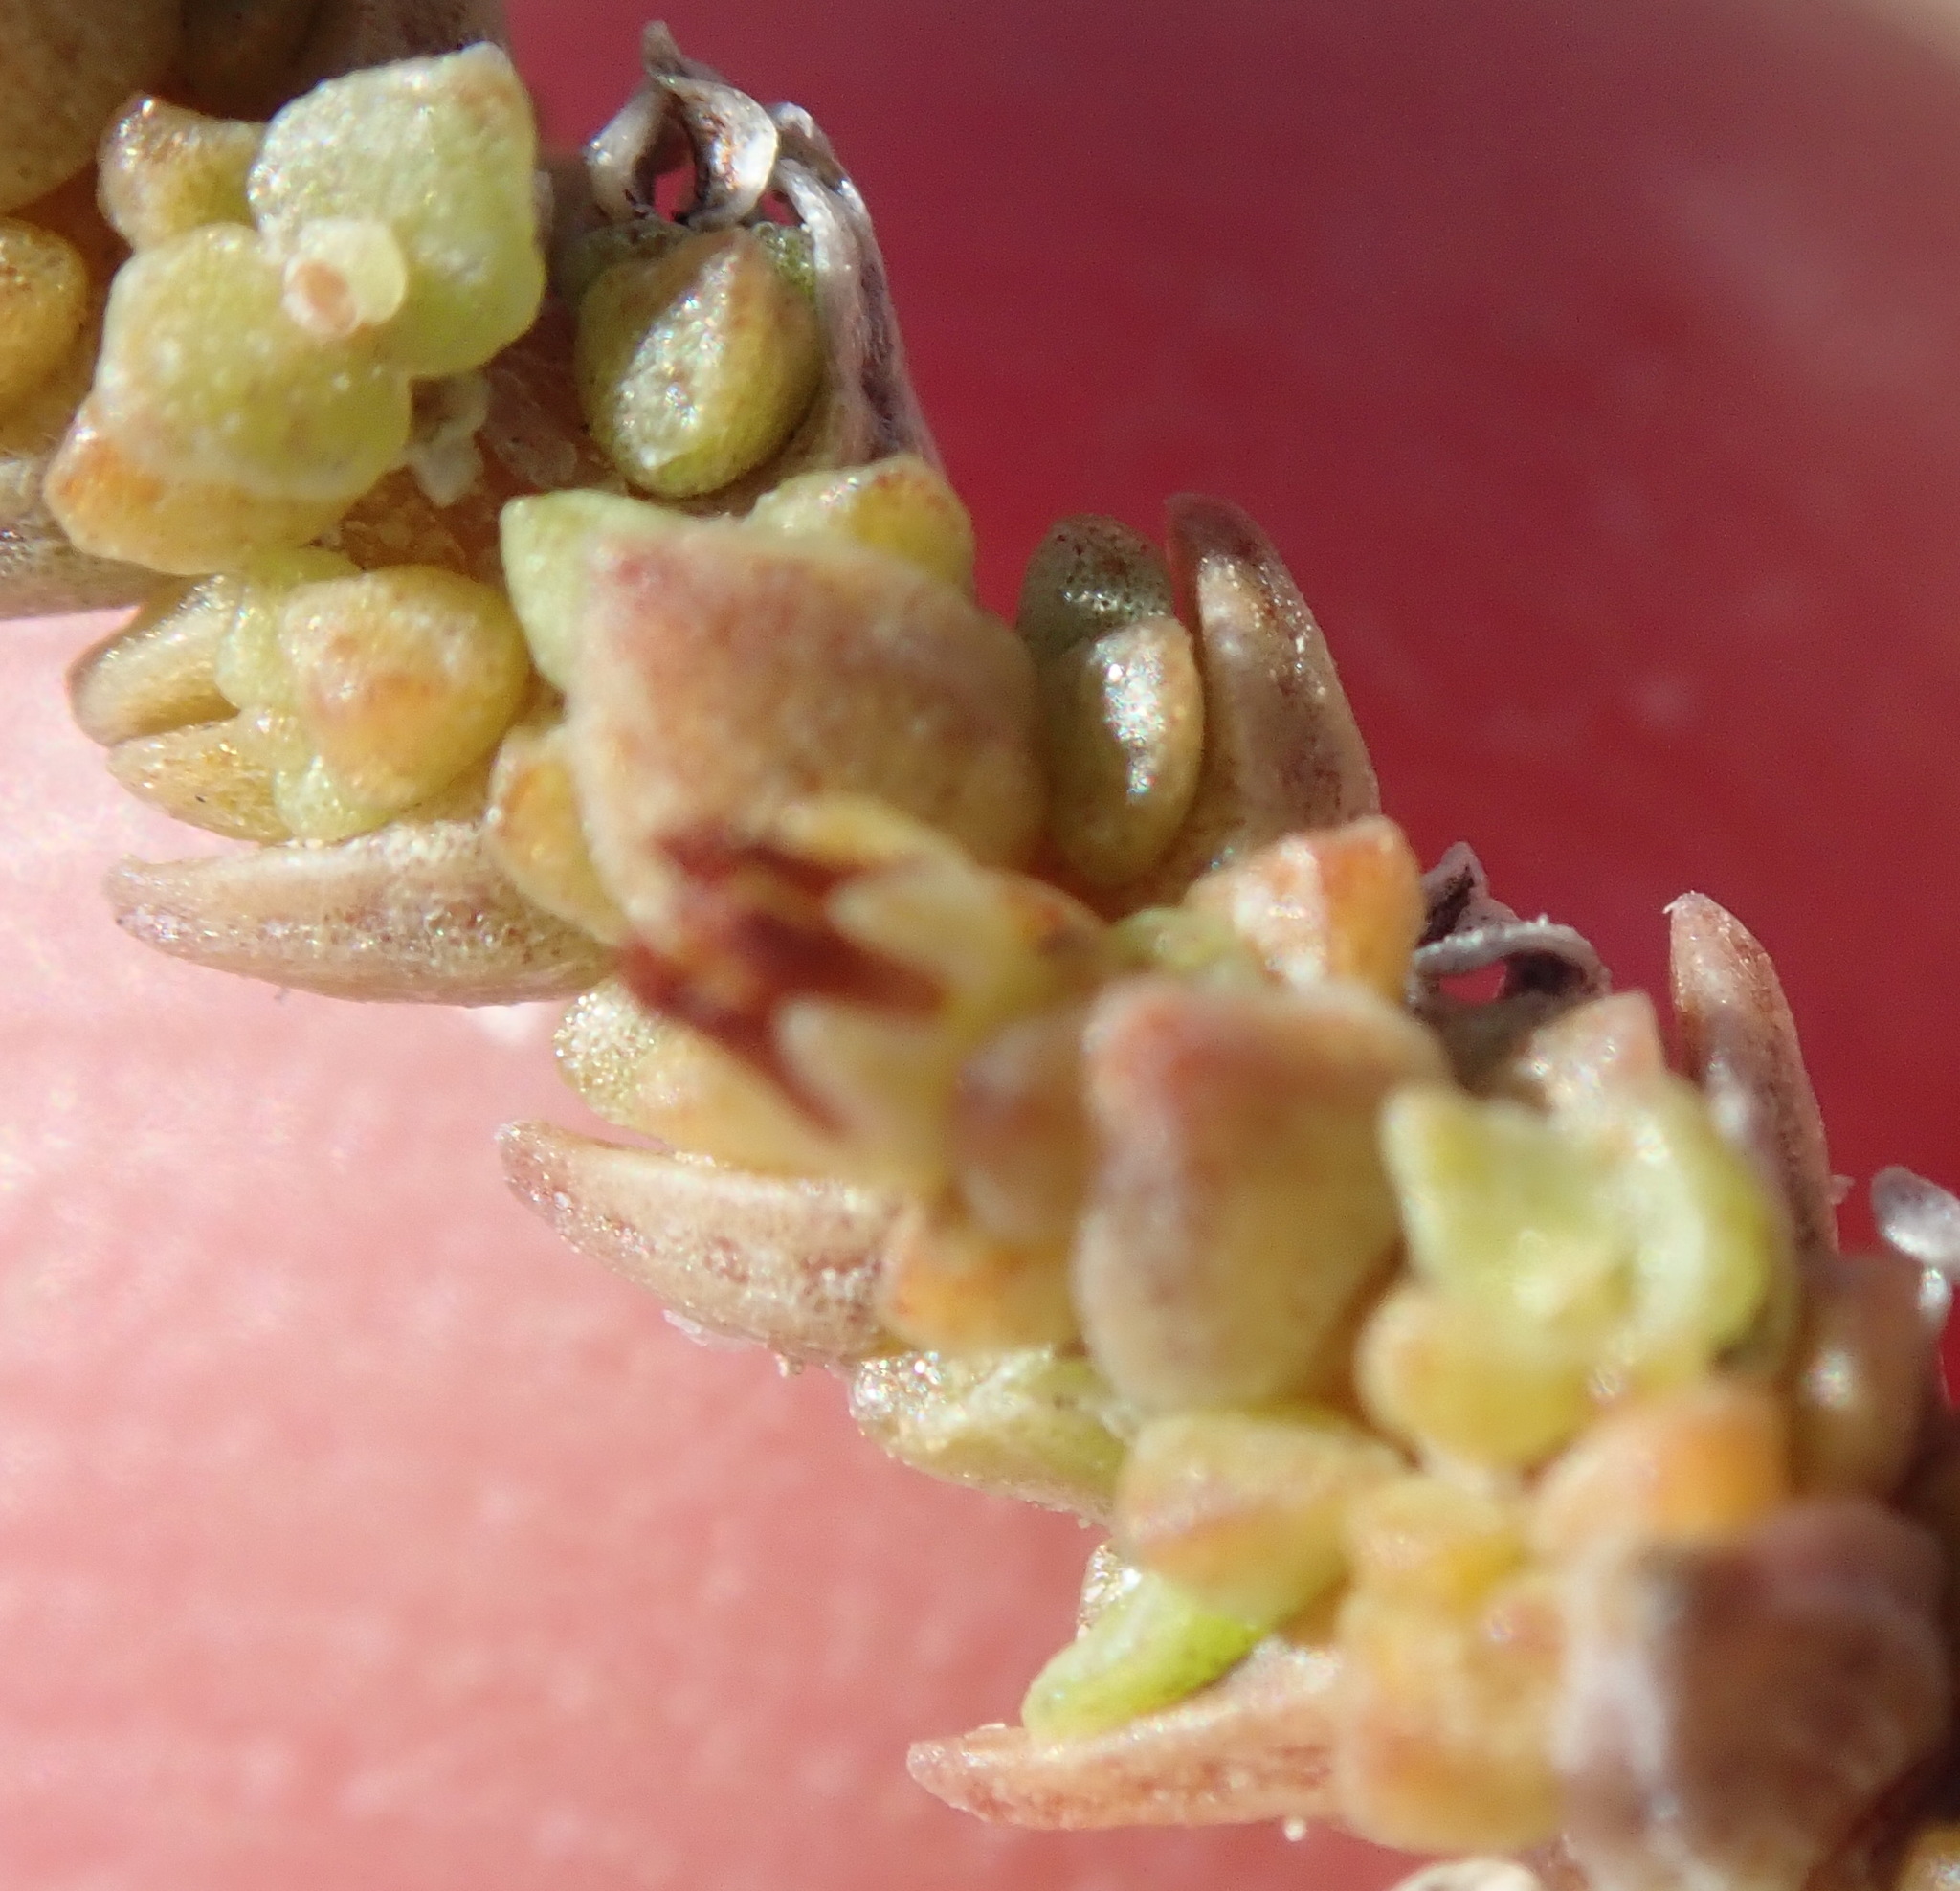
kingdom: Plantae
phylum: Tracheophyta
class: Magnoliopsida
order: Saxifragales
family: Crassulaceae
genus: Crassula
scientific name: Crassula muscosa
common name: Toy-cypress
